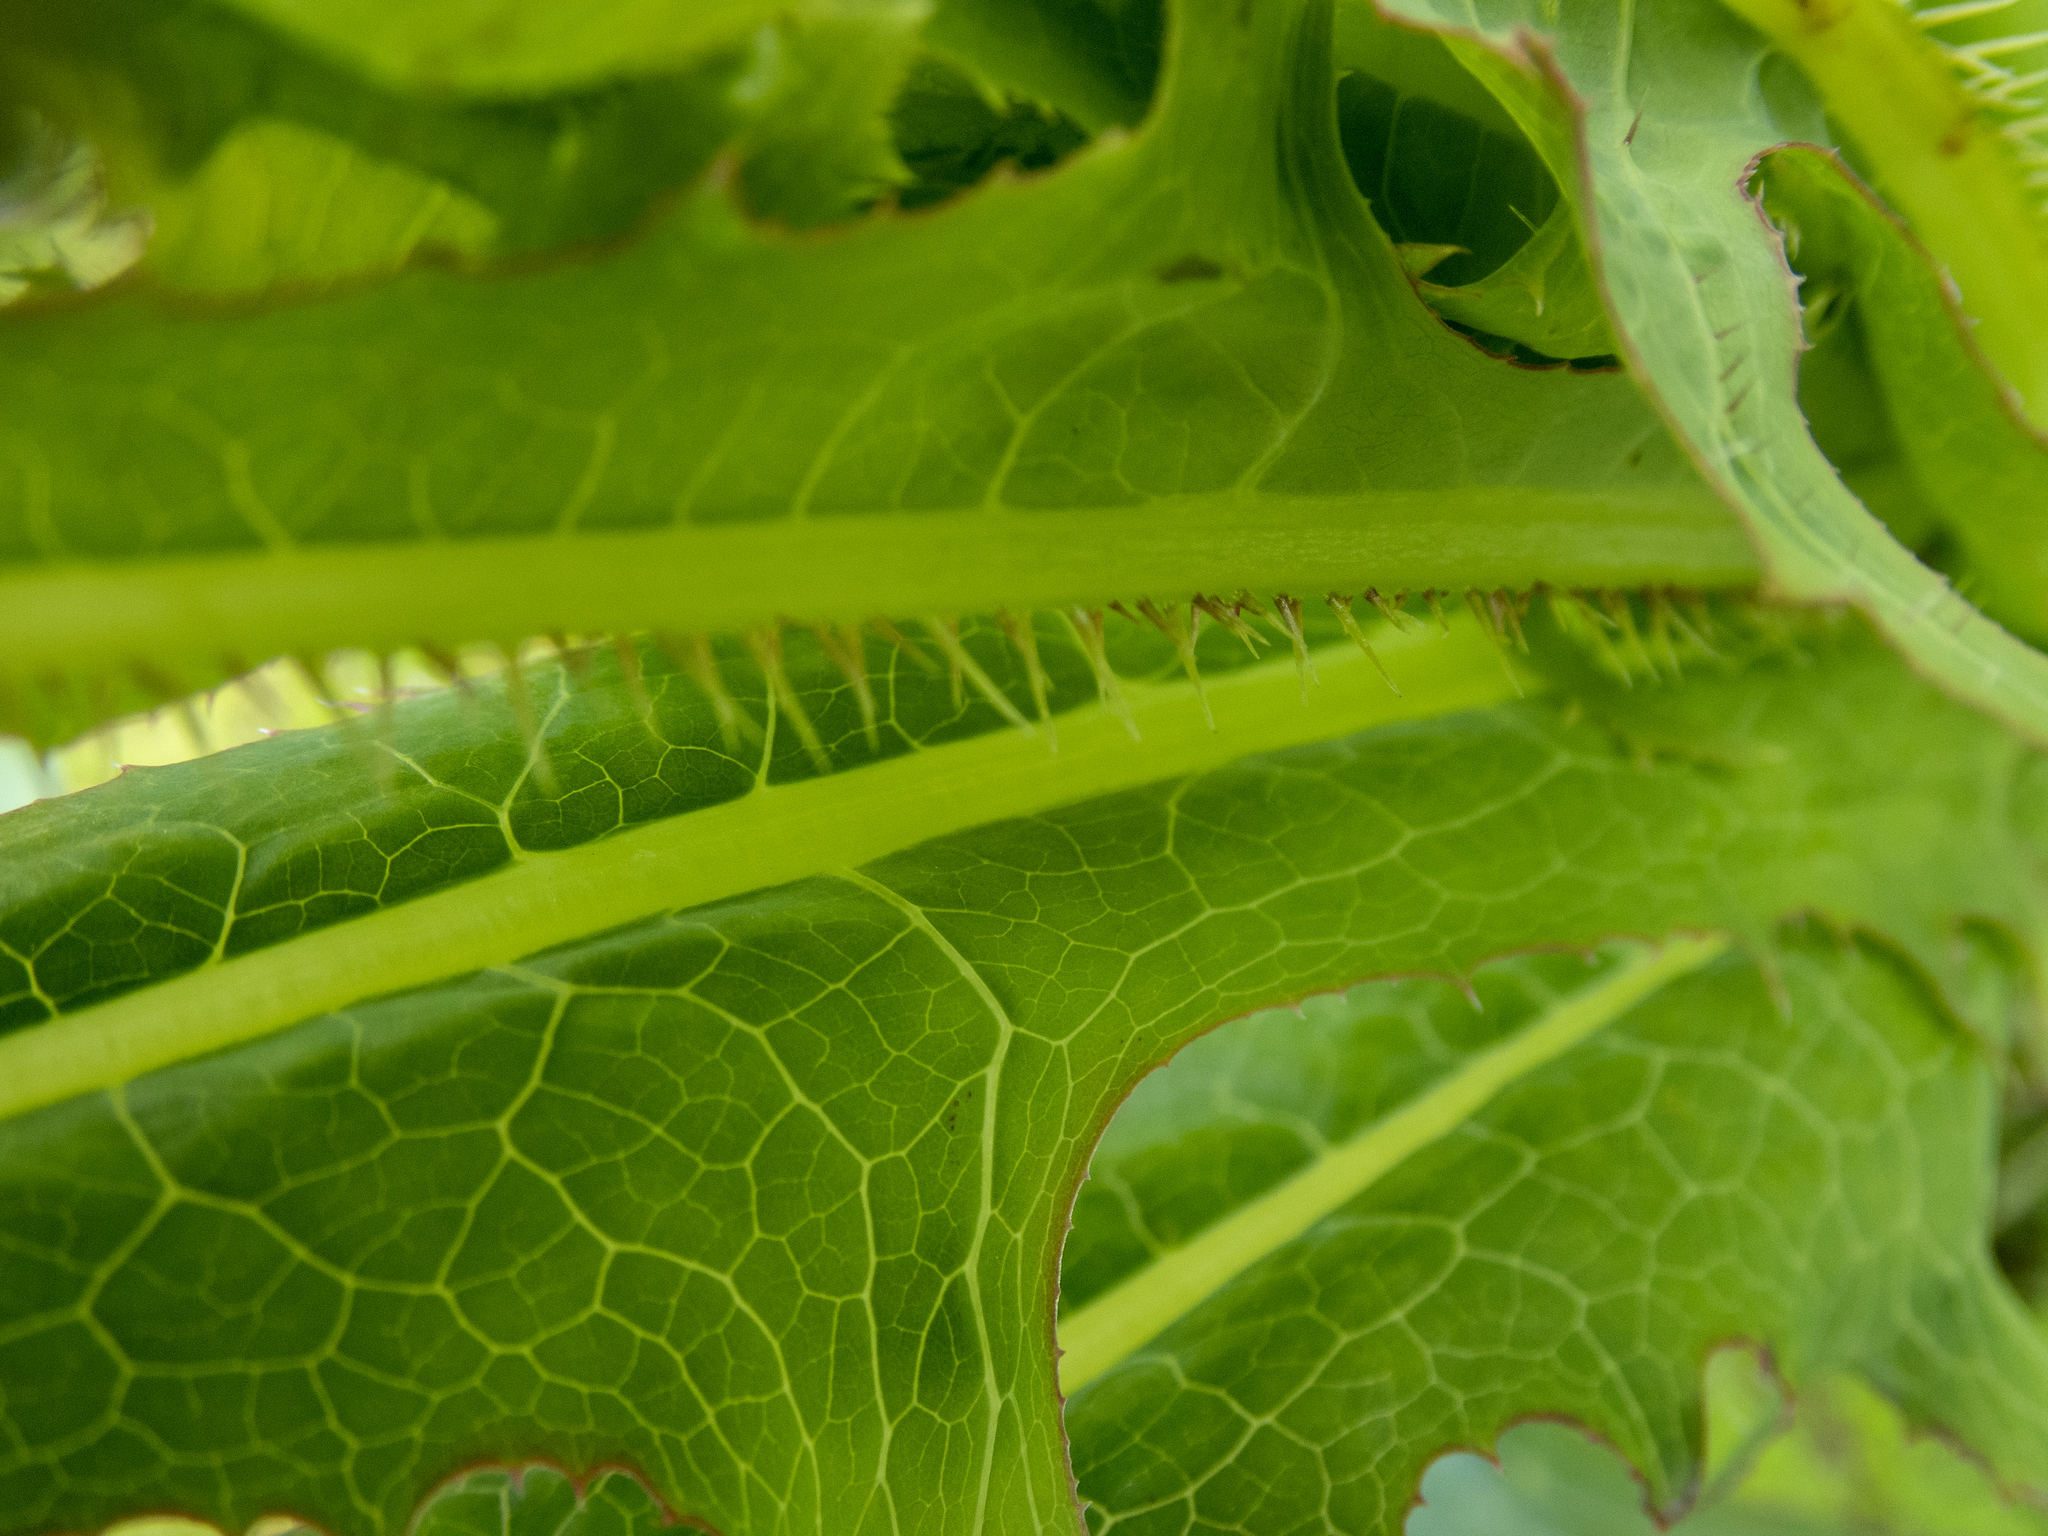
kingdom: Plantae
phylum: Tracheophyta
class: Magnoliopsida
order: Asterales
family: Asteraceae
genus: Lactuca
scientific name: Lactuca serriola
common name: Prickly lettuce
